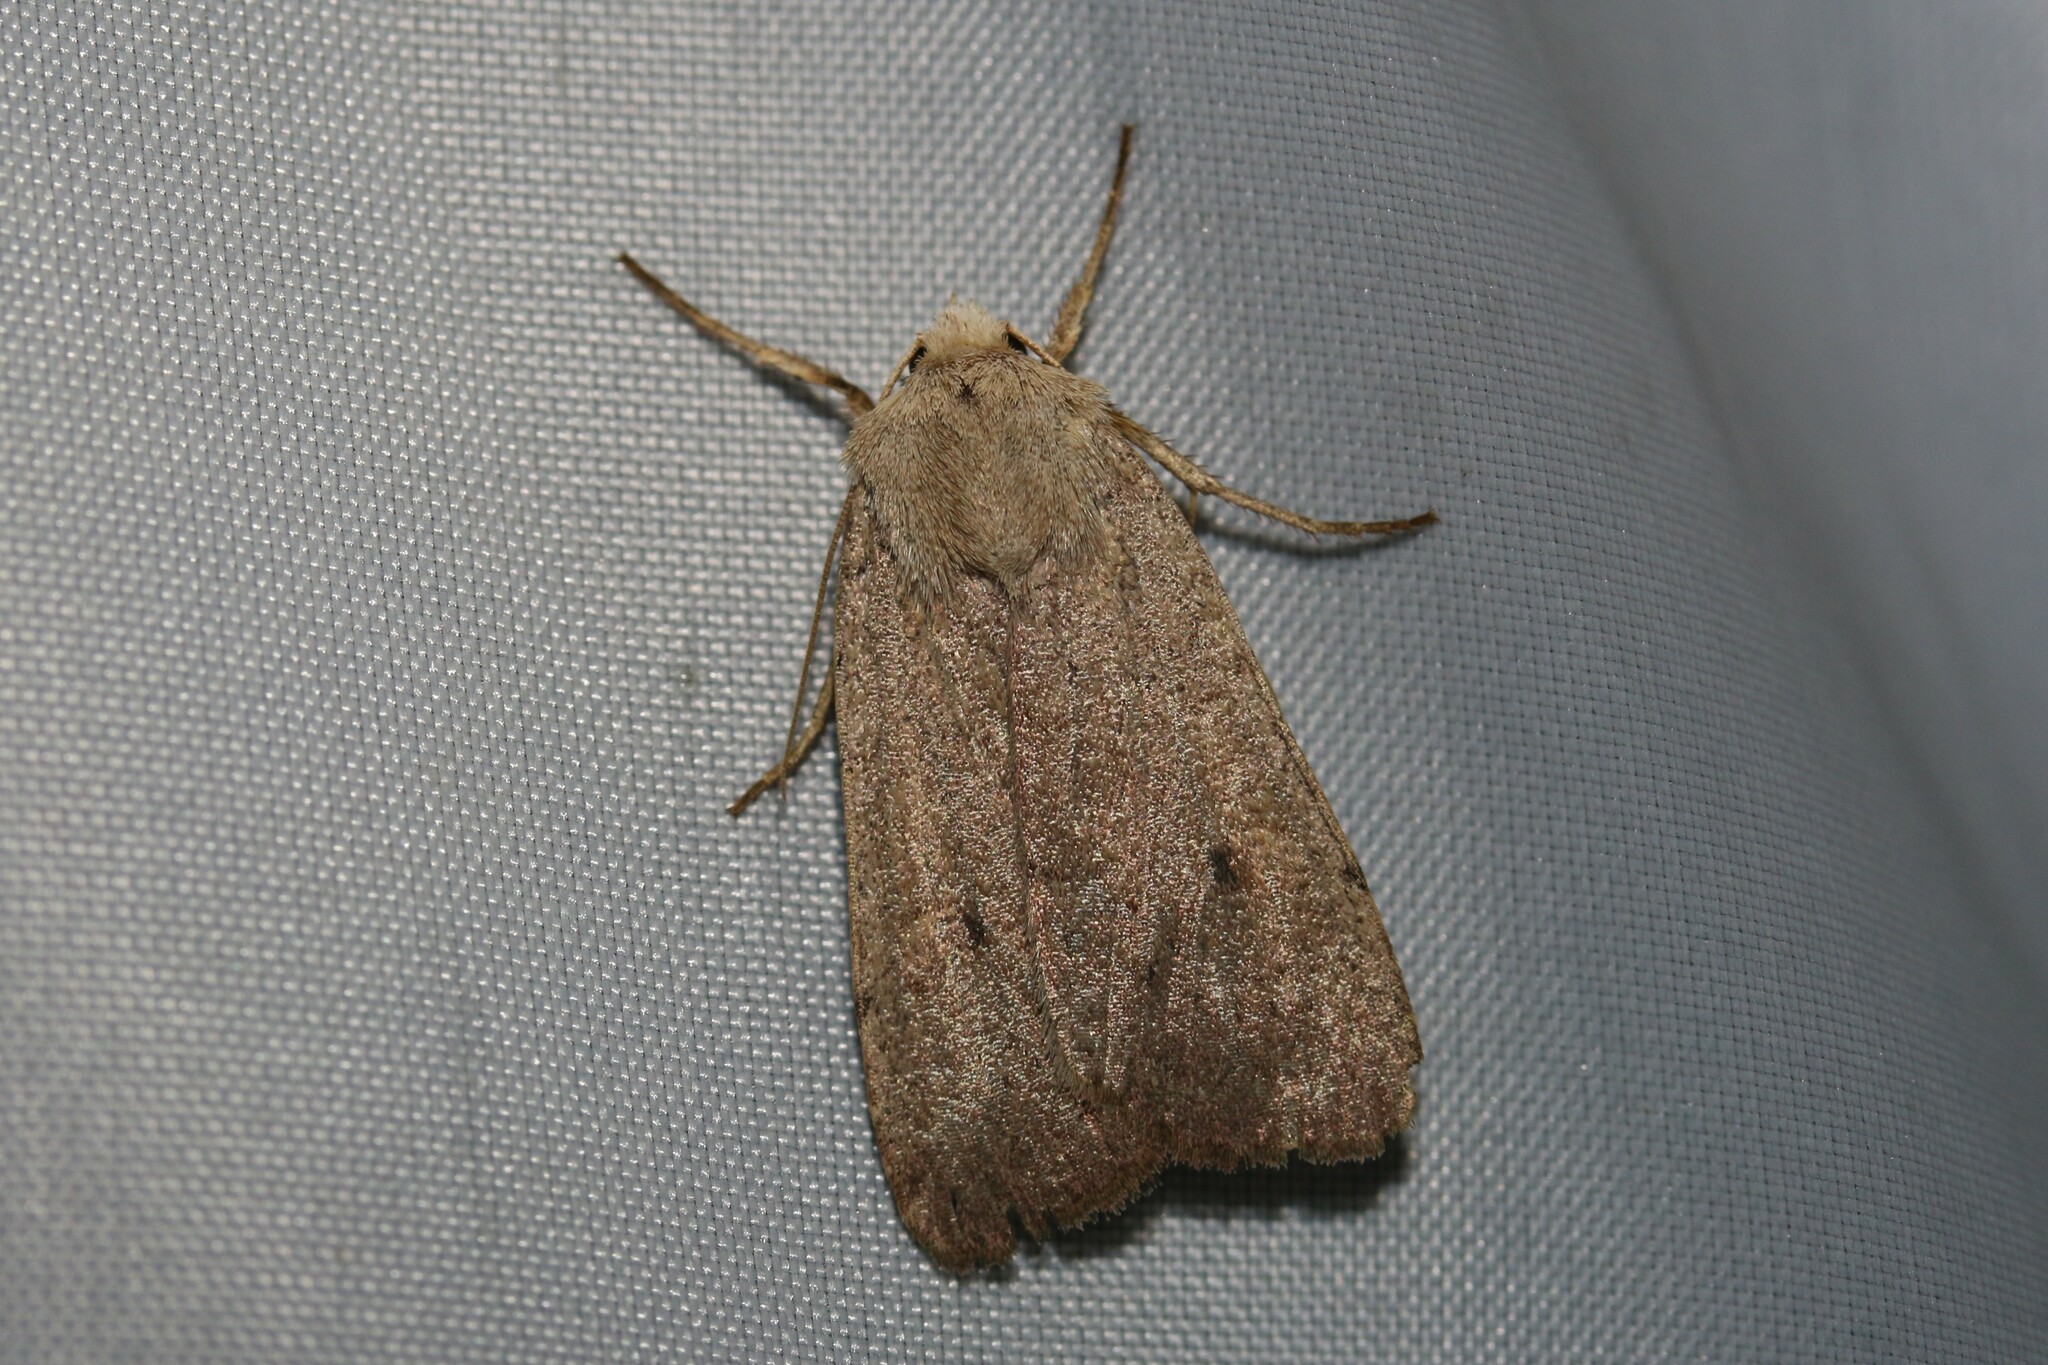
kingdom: Animalia
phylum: Arthropoda
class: Insecta
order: Lepidoptera
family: Noctuidae
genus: Xestia
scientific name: Xestia castanea
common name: Neglected rustic
